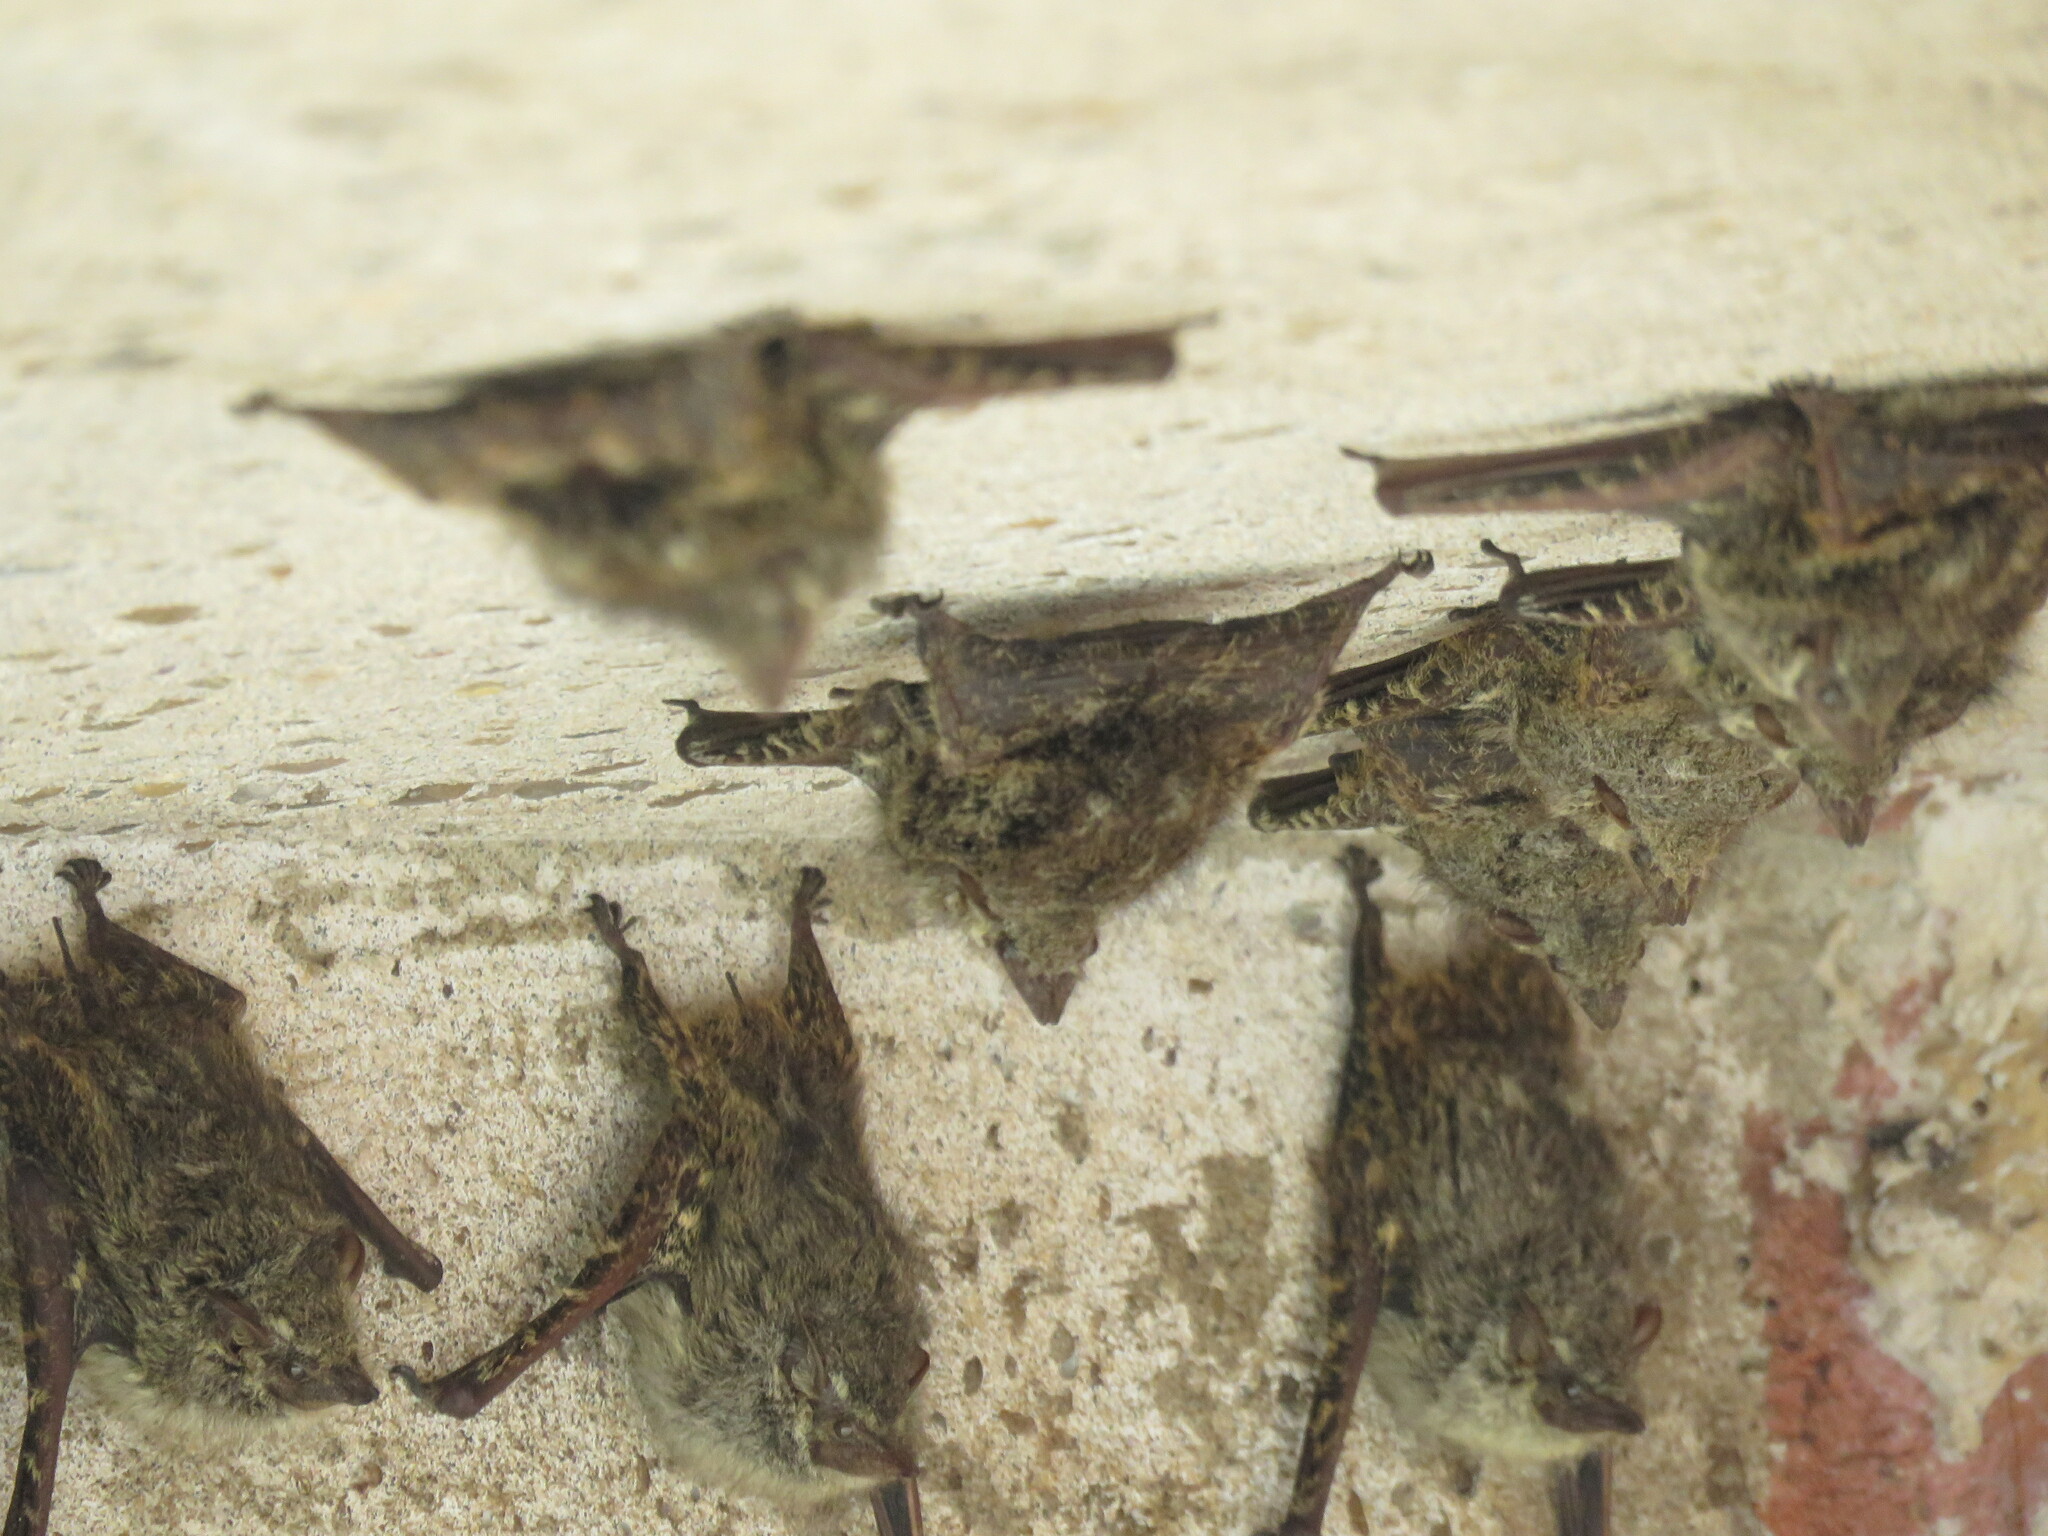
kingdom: Animalia
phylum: Chordata
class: Mammalia
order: Chiroptera
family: Emballonuridae
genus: Rhynchonycteris
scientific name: Rhynchonycteris naso
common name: Proboscis bat
